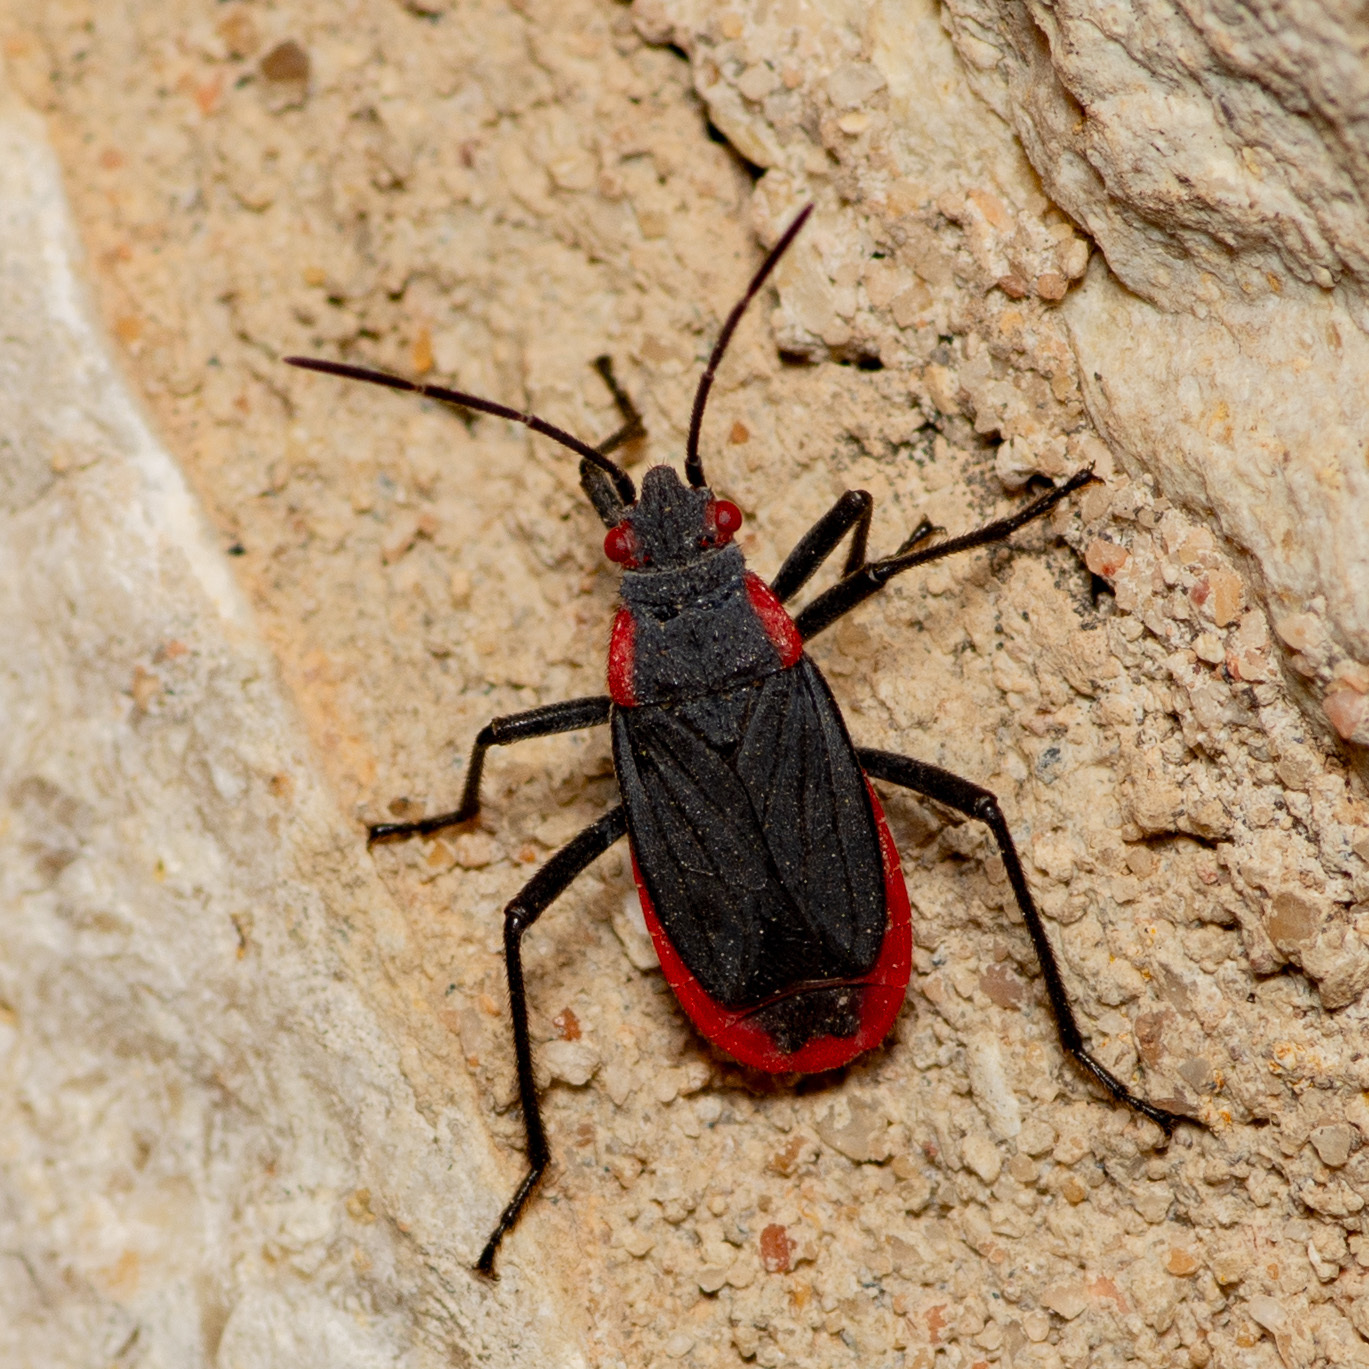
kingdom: Animalia
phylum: Arthropoda
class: Insecta
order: Hemiptera
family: Rhopalidae
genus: Jadera
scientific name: Jadera haematoloma
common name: Red-shouldered bug
